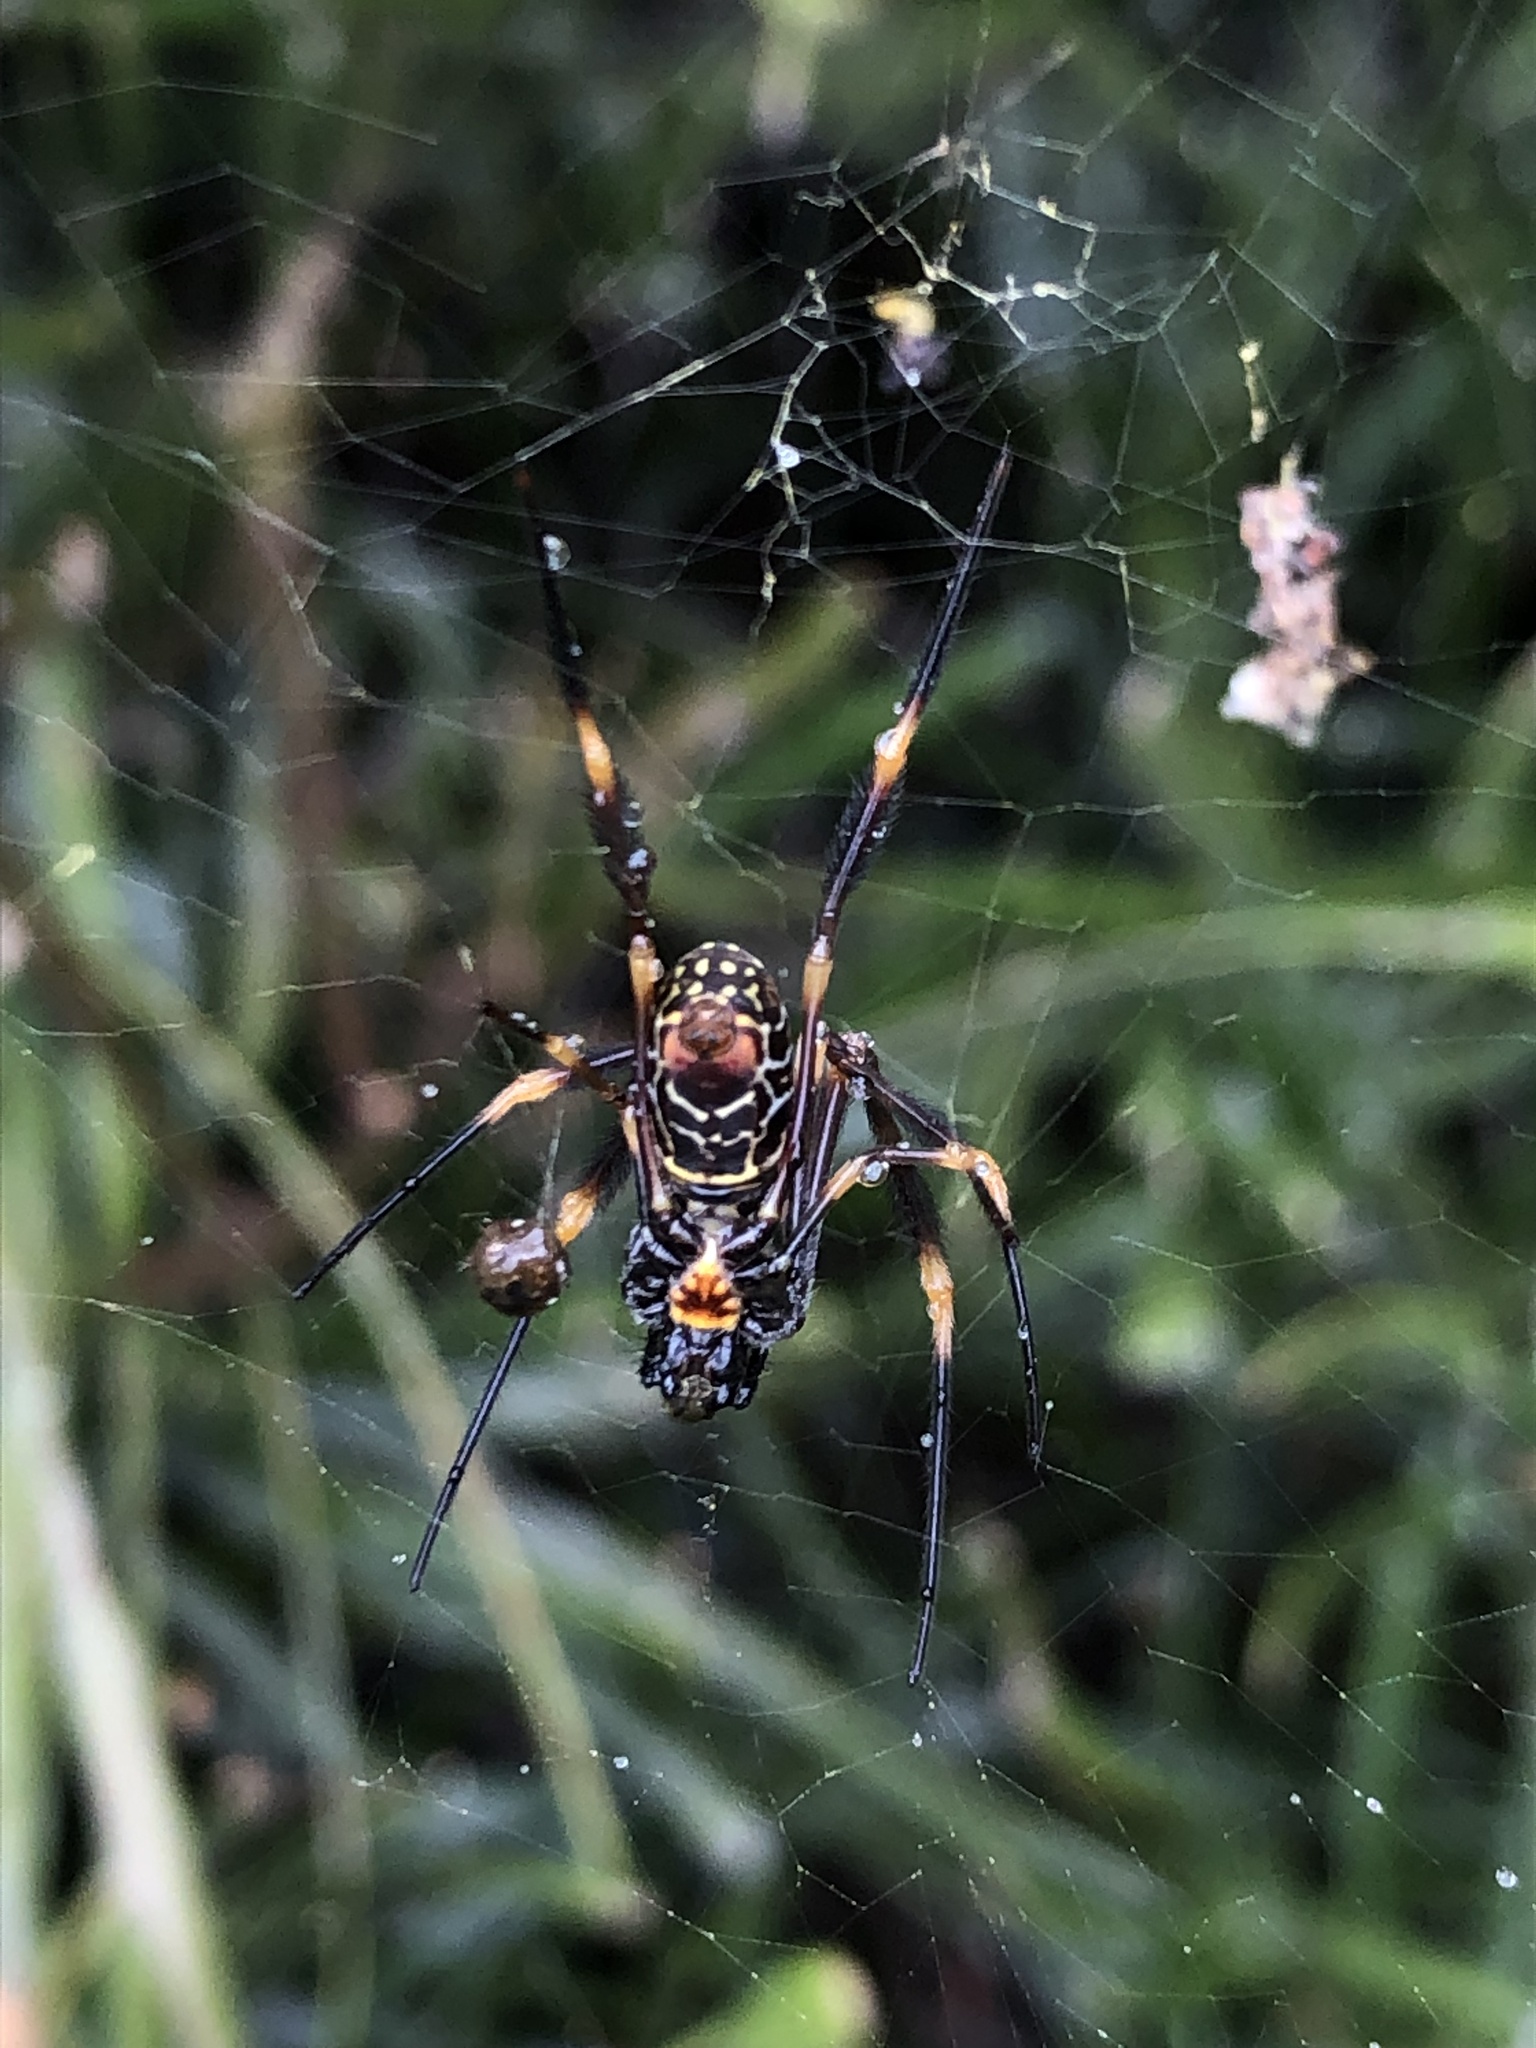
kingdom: Animalia
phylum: Arthropoda
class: Arachnida
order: Araneae
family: Araneidae
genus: Trichonephila
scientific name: Trichonephila plumipes
